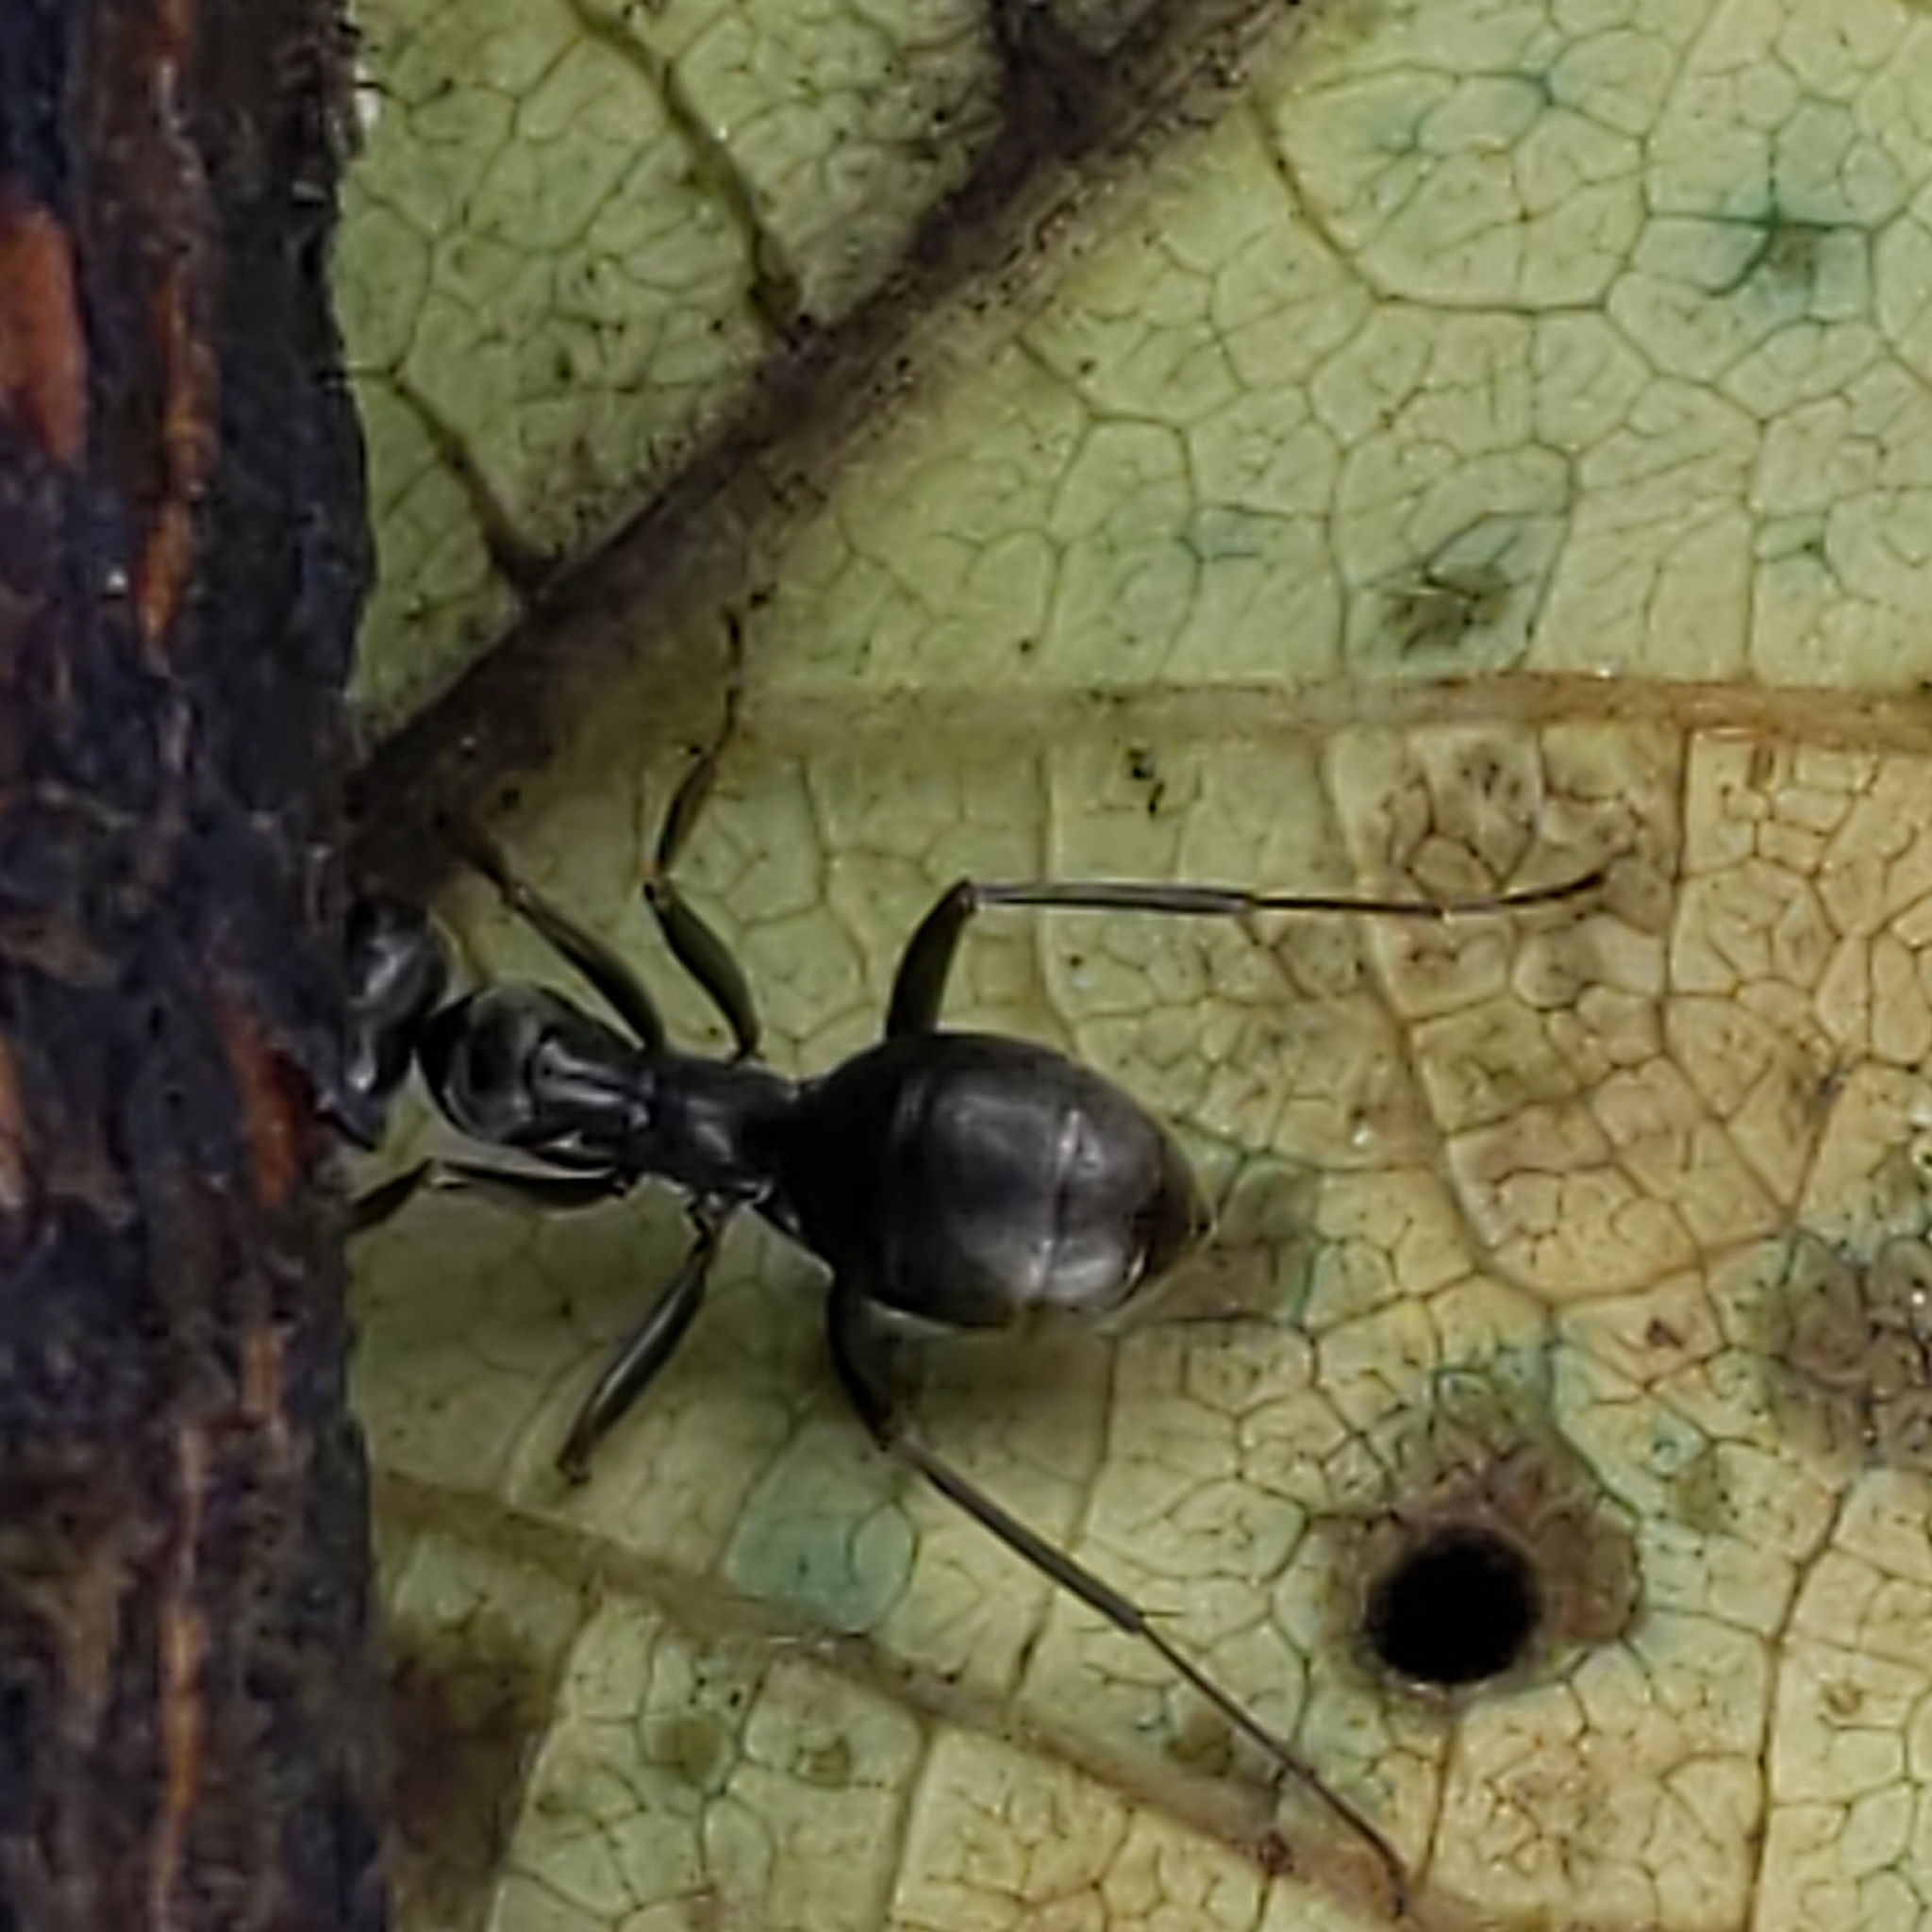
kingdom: Animalia
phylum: Arthropoda
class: Insecta
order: Hymenoptera
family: Formicidae
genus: Formica
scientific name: Formica
